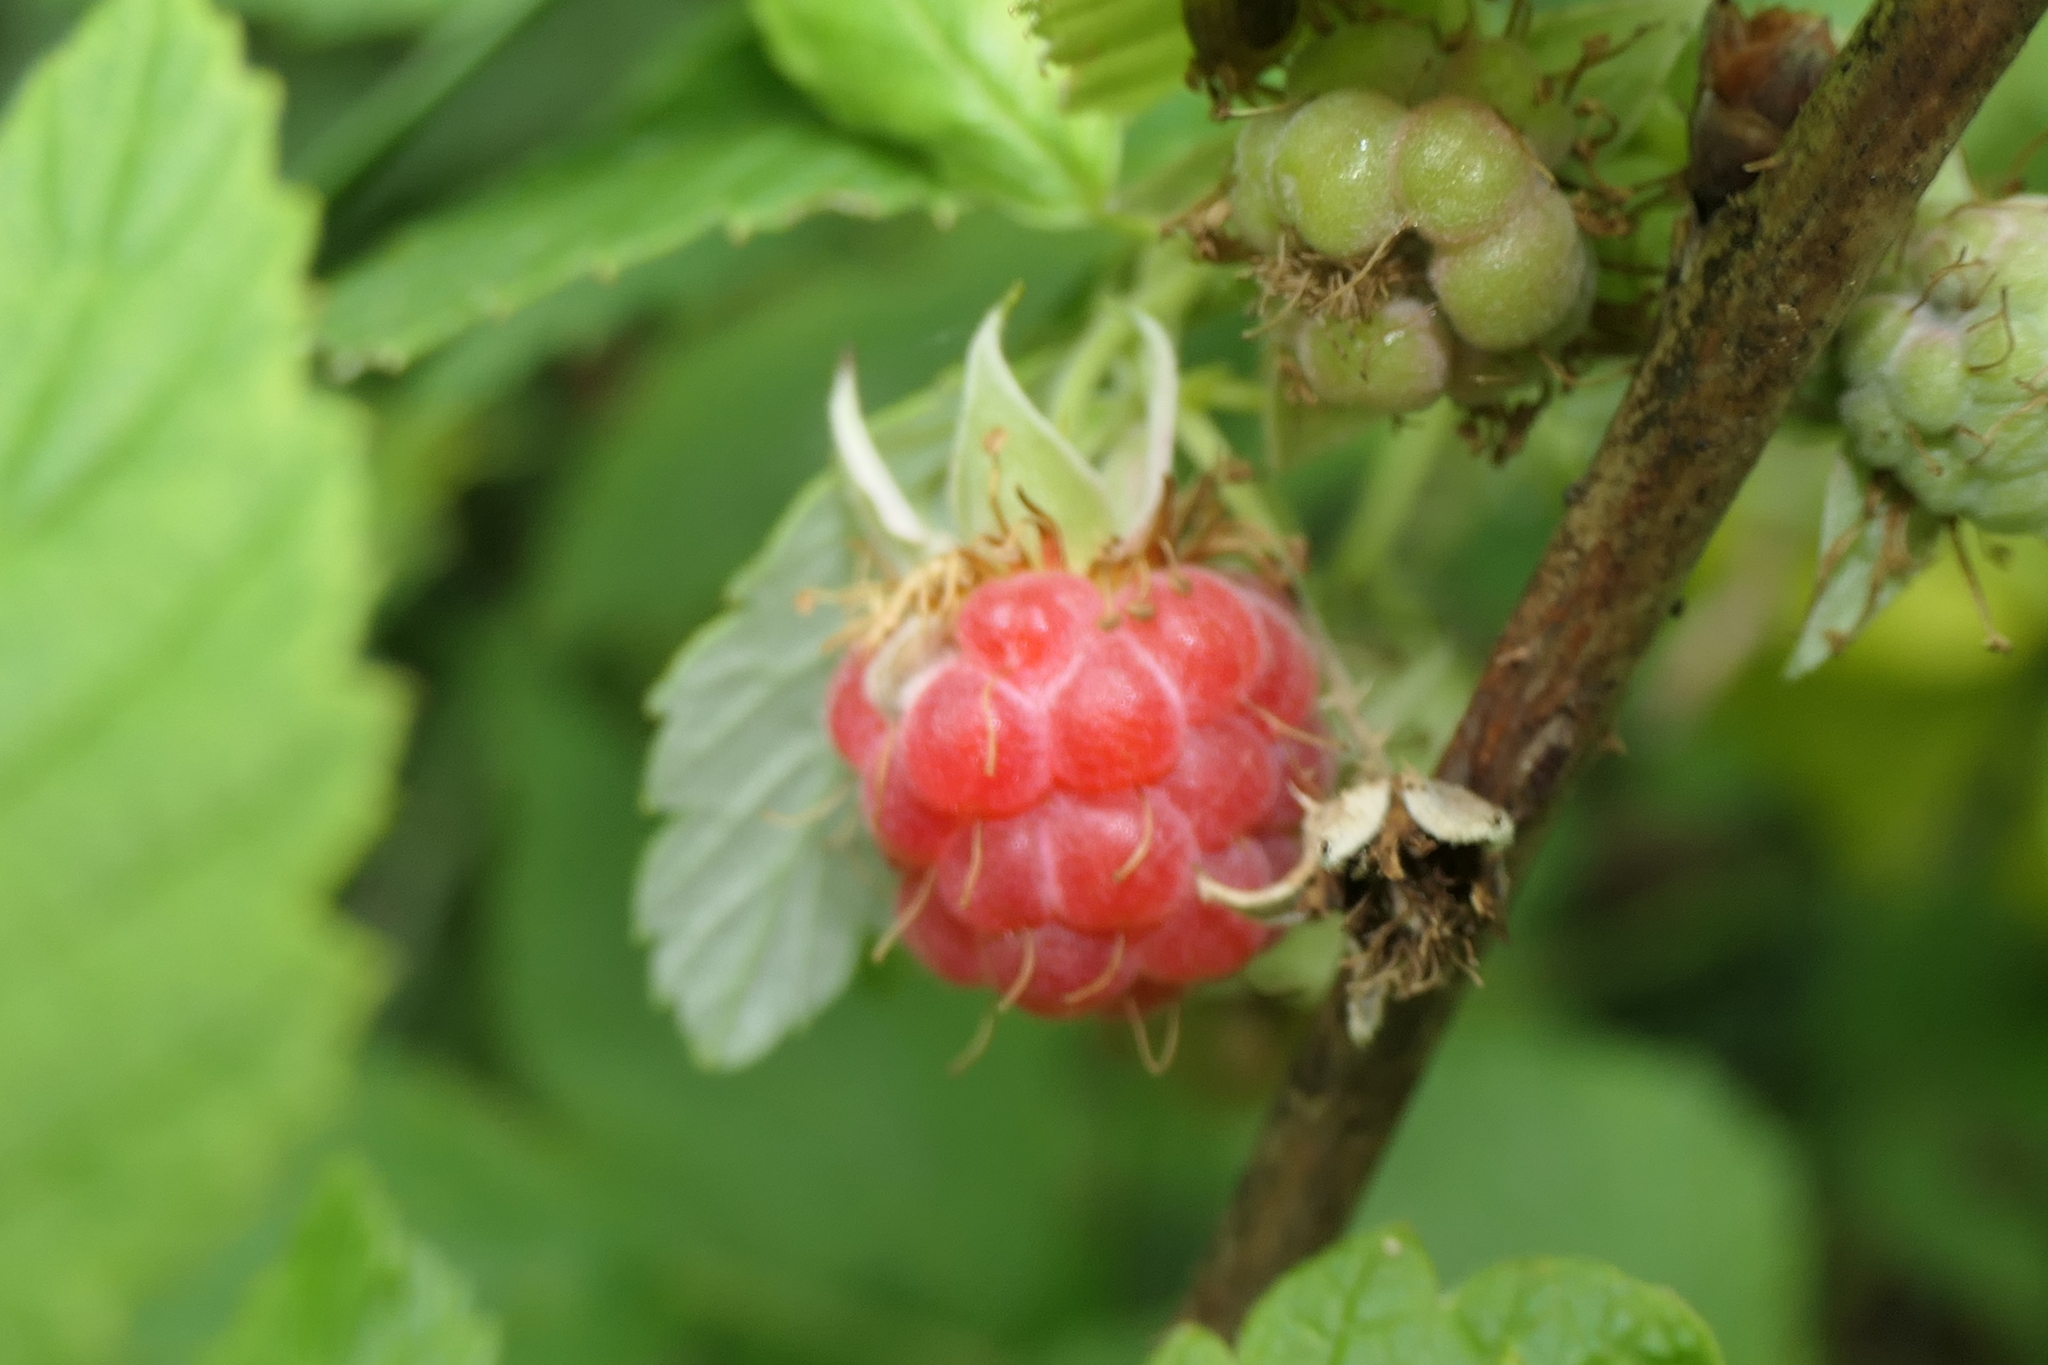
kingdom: Plantae
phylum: Tracheophyta
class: Magnoliopsida
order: Rosales
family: Rosaceae
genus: Rubus
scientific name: Rubus idaeus
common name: Raspberry
